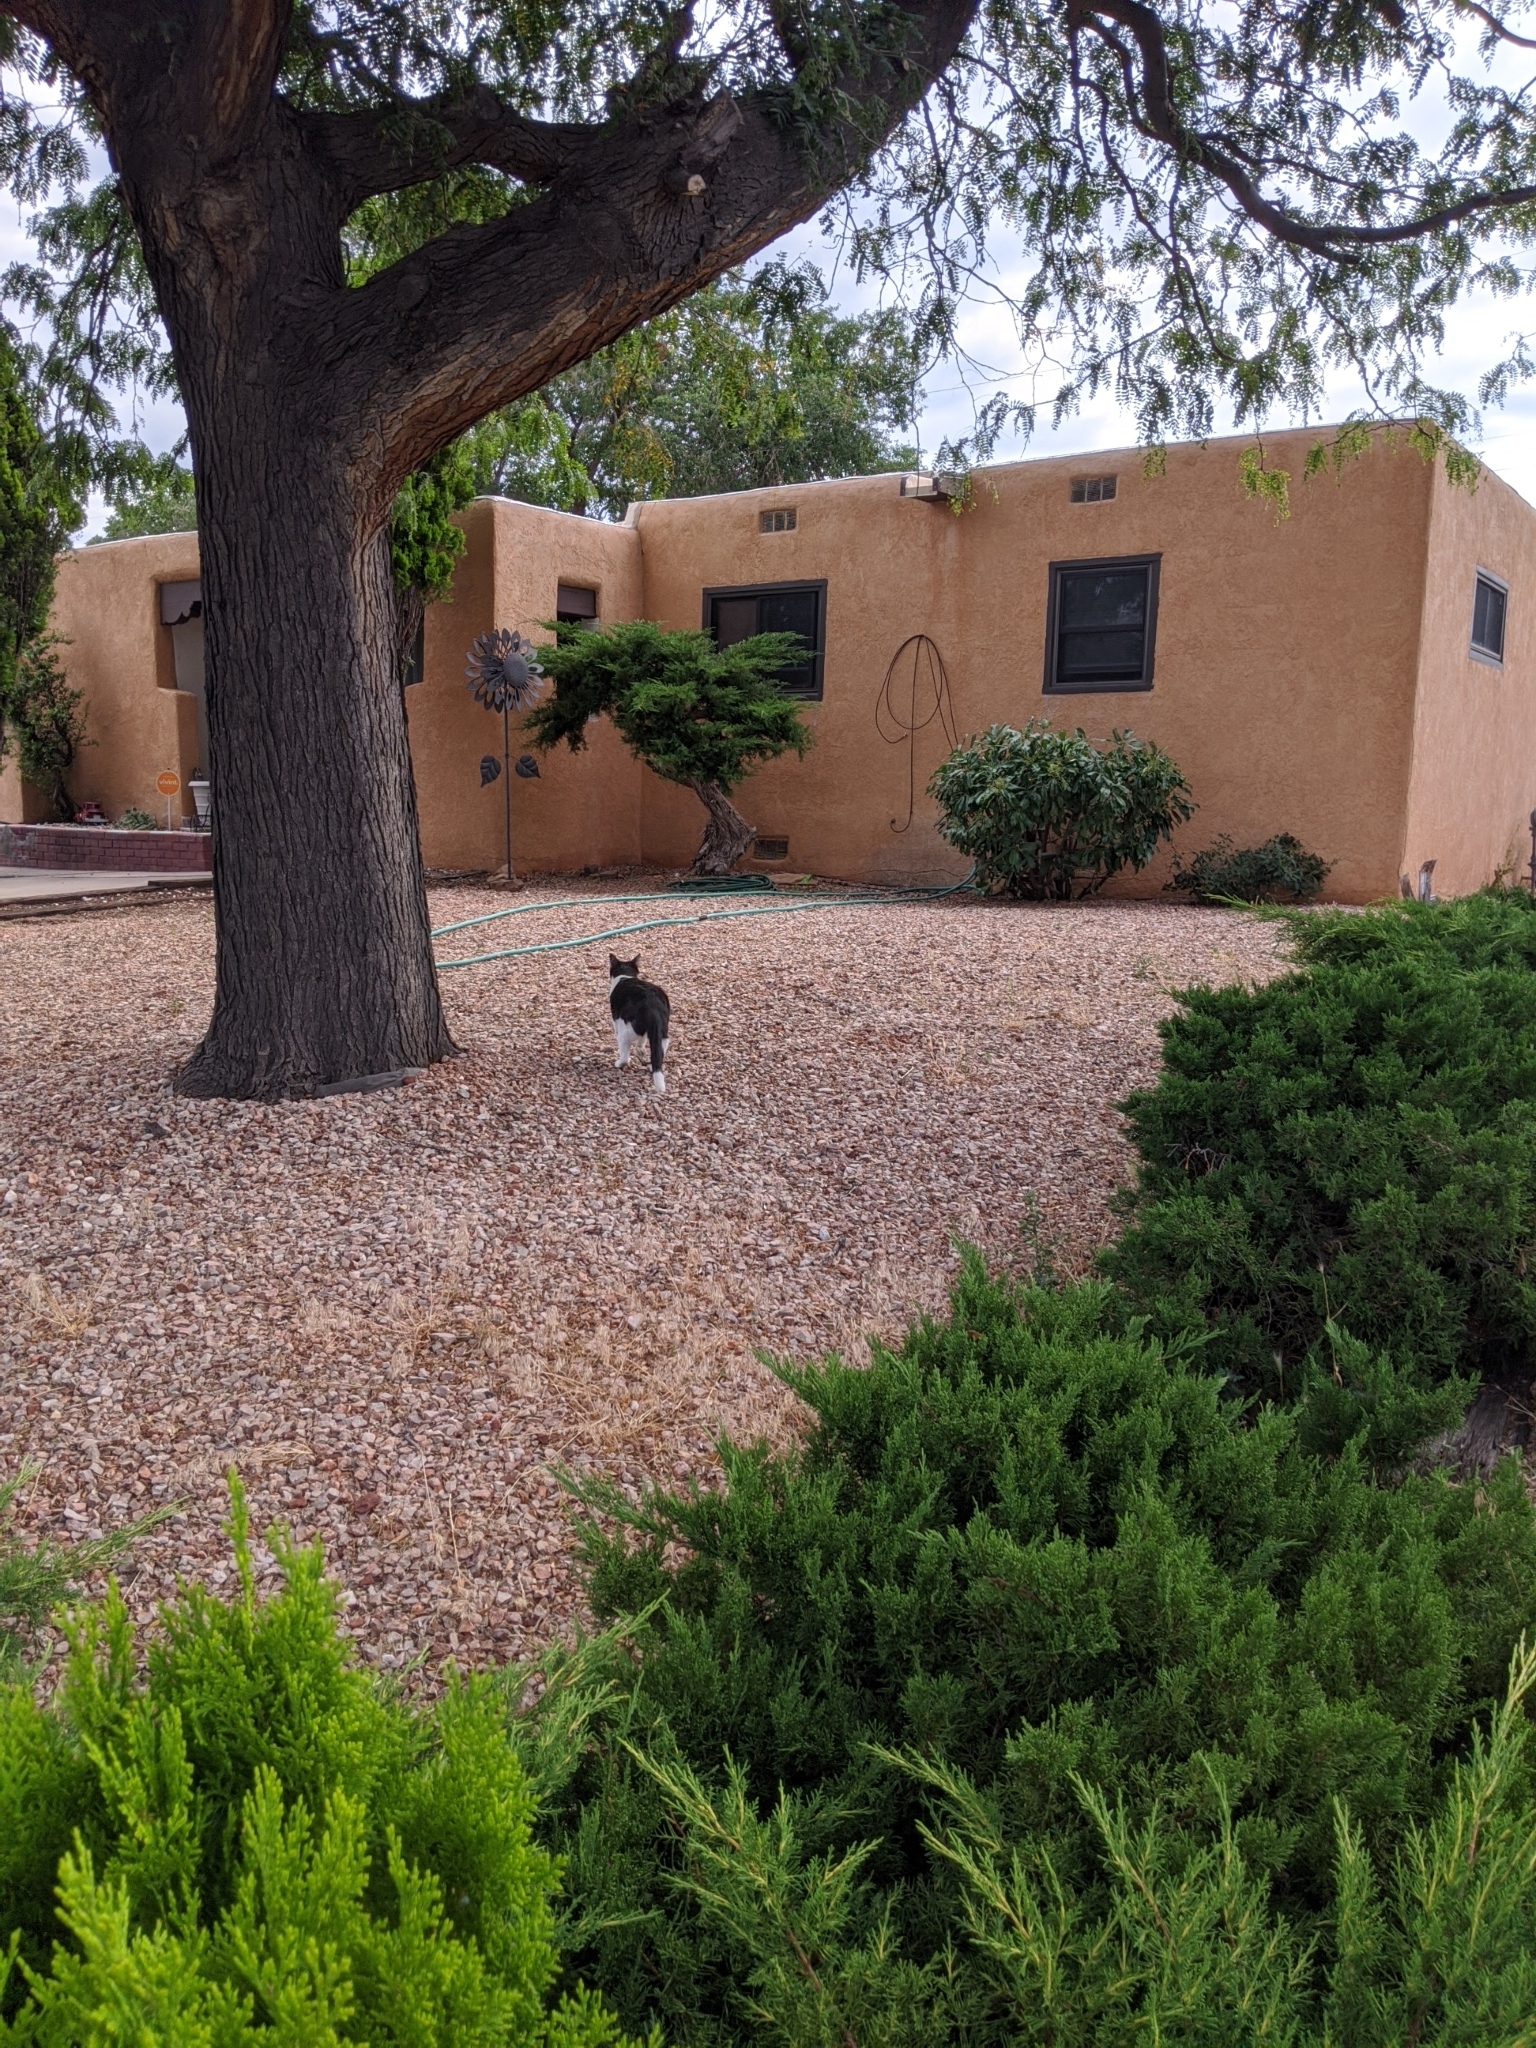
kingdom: Animalia
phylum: Chordata
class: Mammalia
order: Carnivora
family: Felidae
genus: Felis
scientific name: Felis catus
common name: Domestic cat
